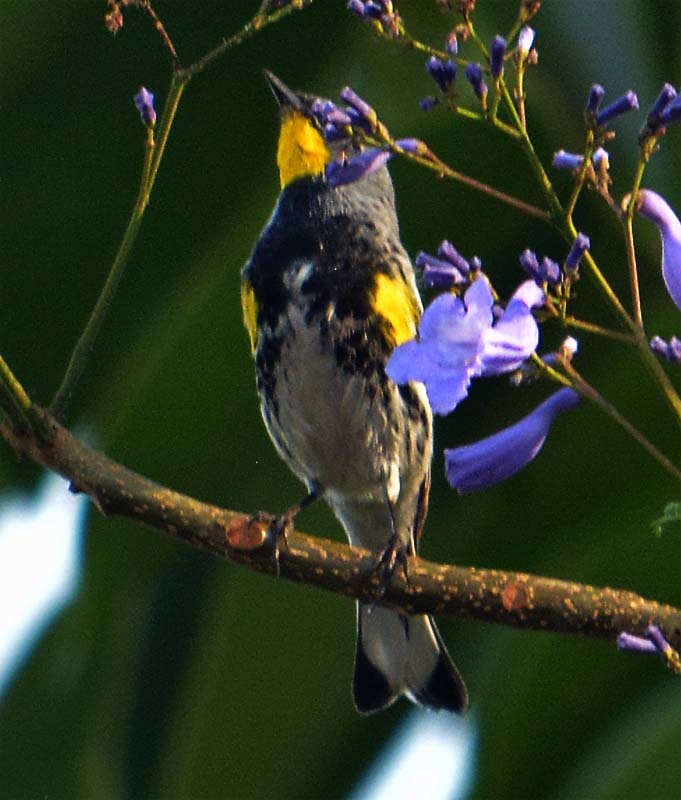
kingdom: Animalia
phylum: Chordata
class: Aves
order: Passeriformes
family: Parulidae
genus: Setophaga
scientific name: Setophaga auduboni
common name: Audubon's warbler
